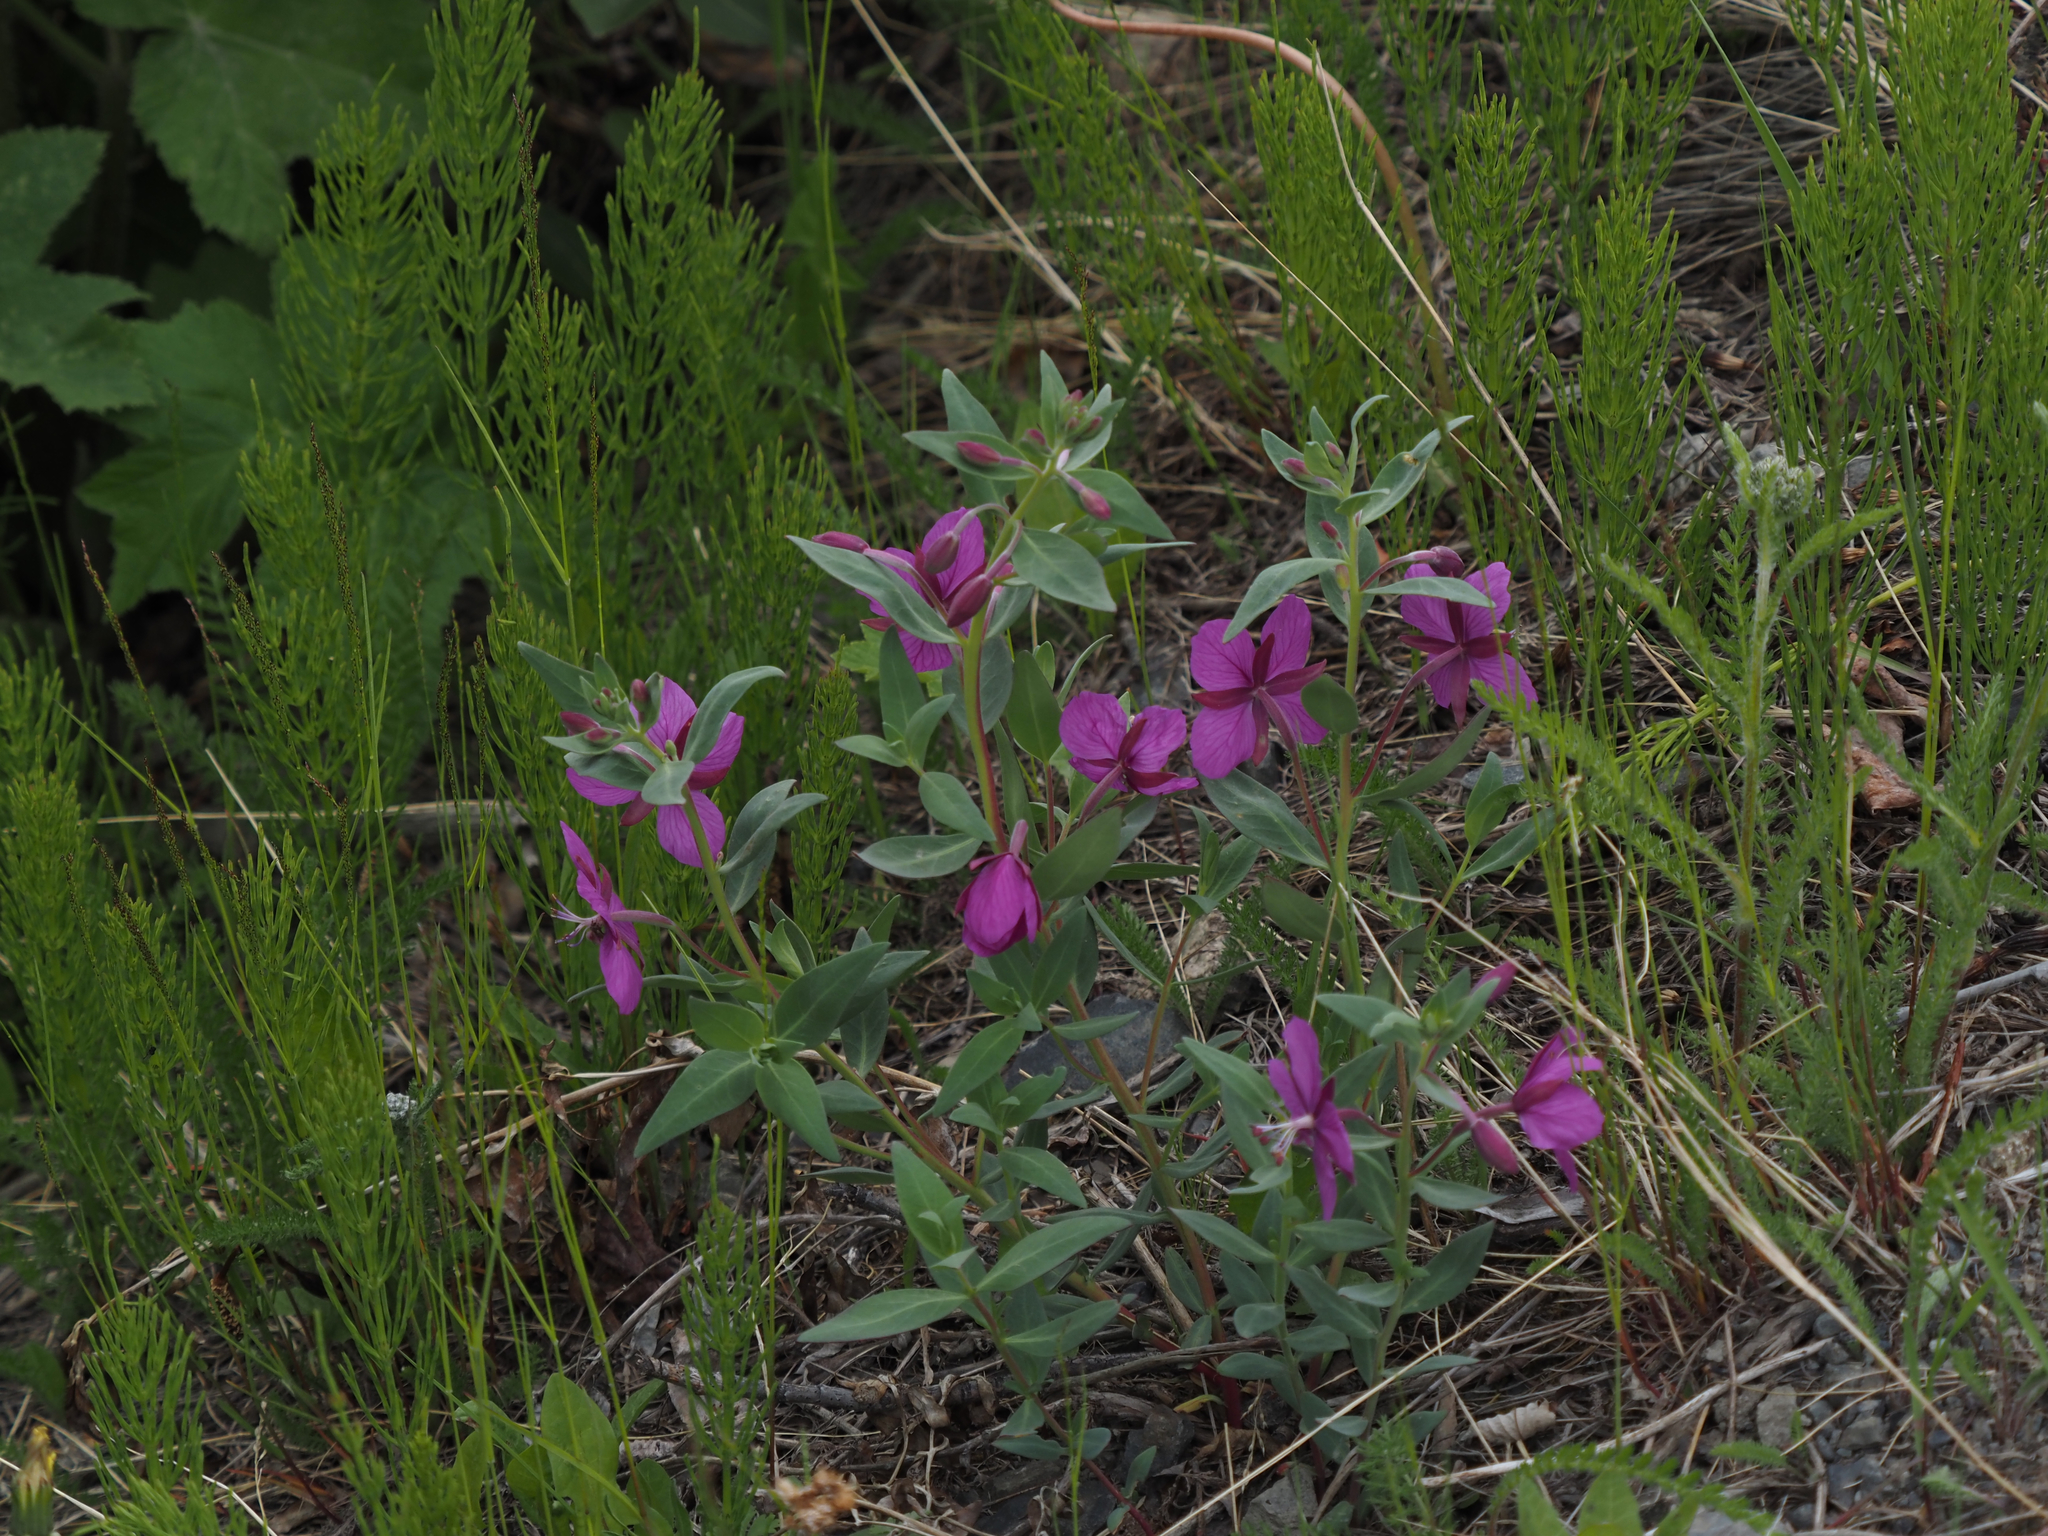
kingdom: Plantae
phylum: Tracheophyta
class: Magnoliopsida
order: Myrtales
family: Onagraceae
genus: Chamaenerion
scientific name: Chamaenerion latifolium
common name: Dwarf fireweed
